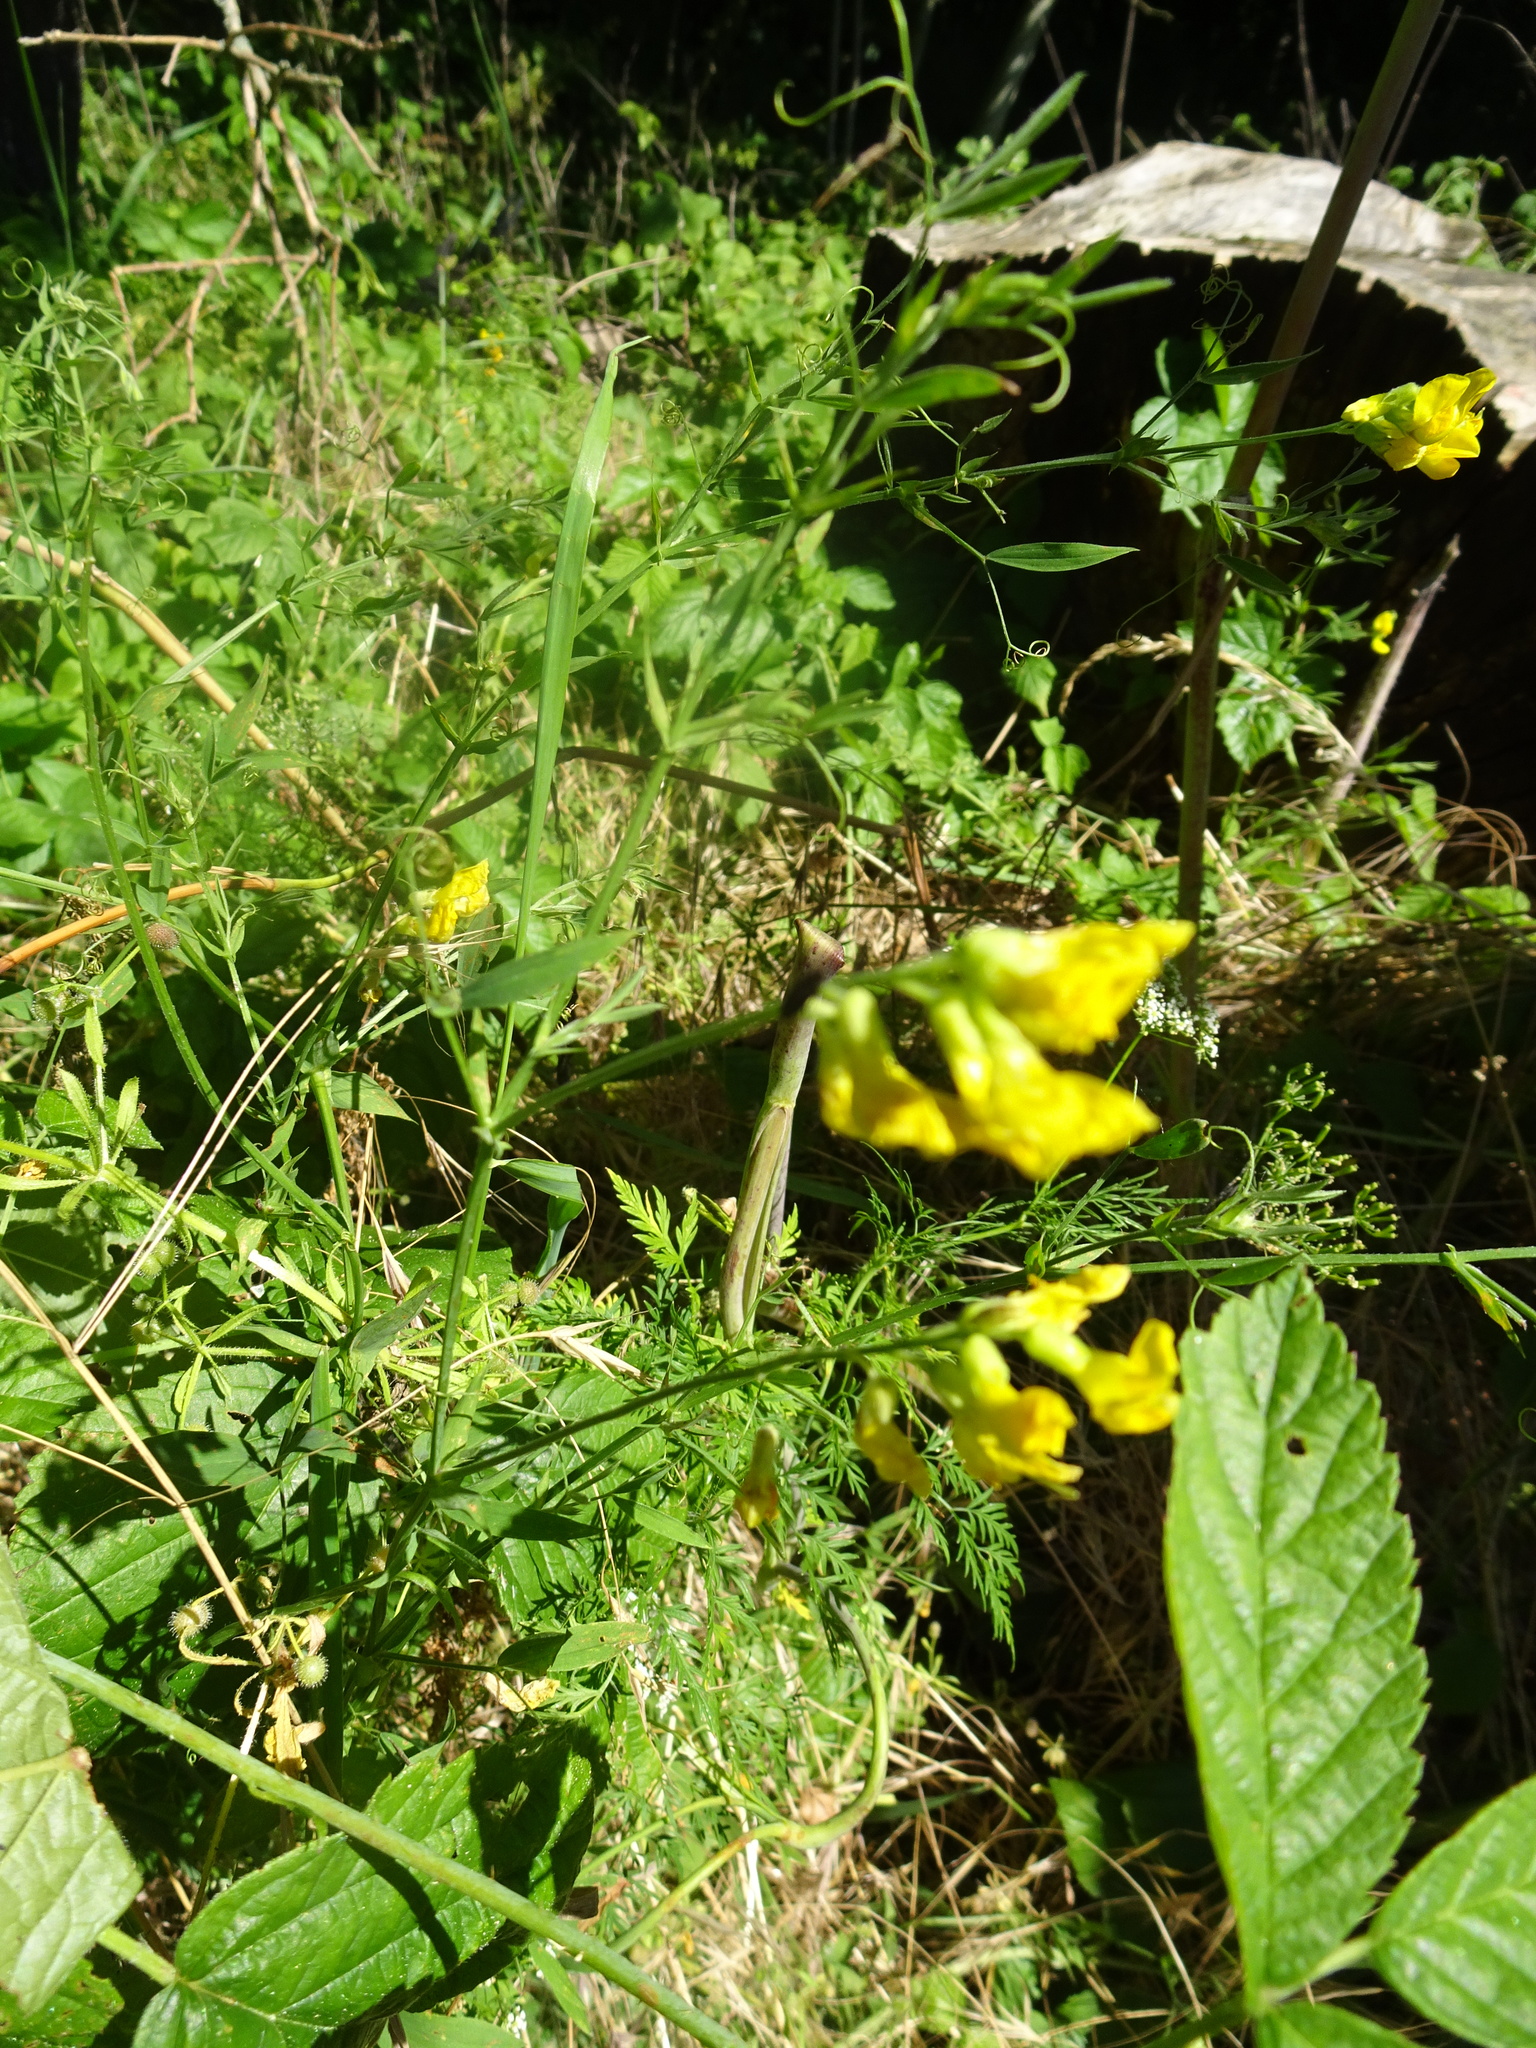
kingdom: Plantae
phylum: Tracheophyta
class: Magnoliopsida
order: Fabales
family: Fabaceae
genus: Lathyrus
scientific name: Lathyrus pratensis
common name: Meadow vetchling
